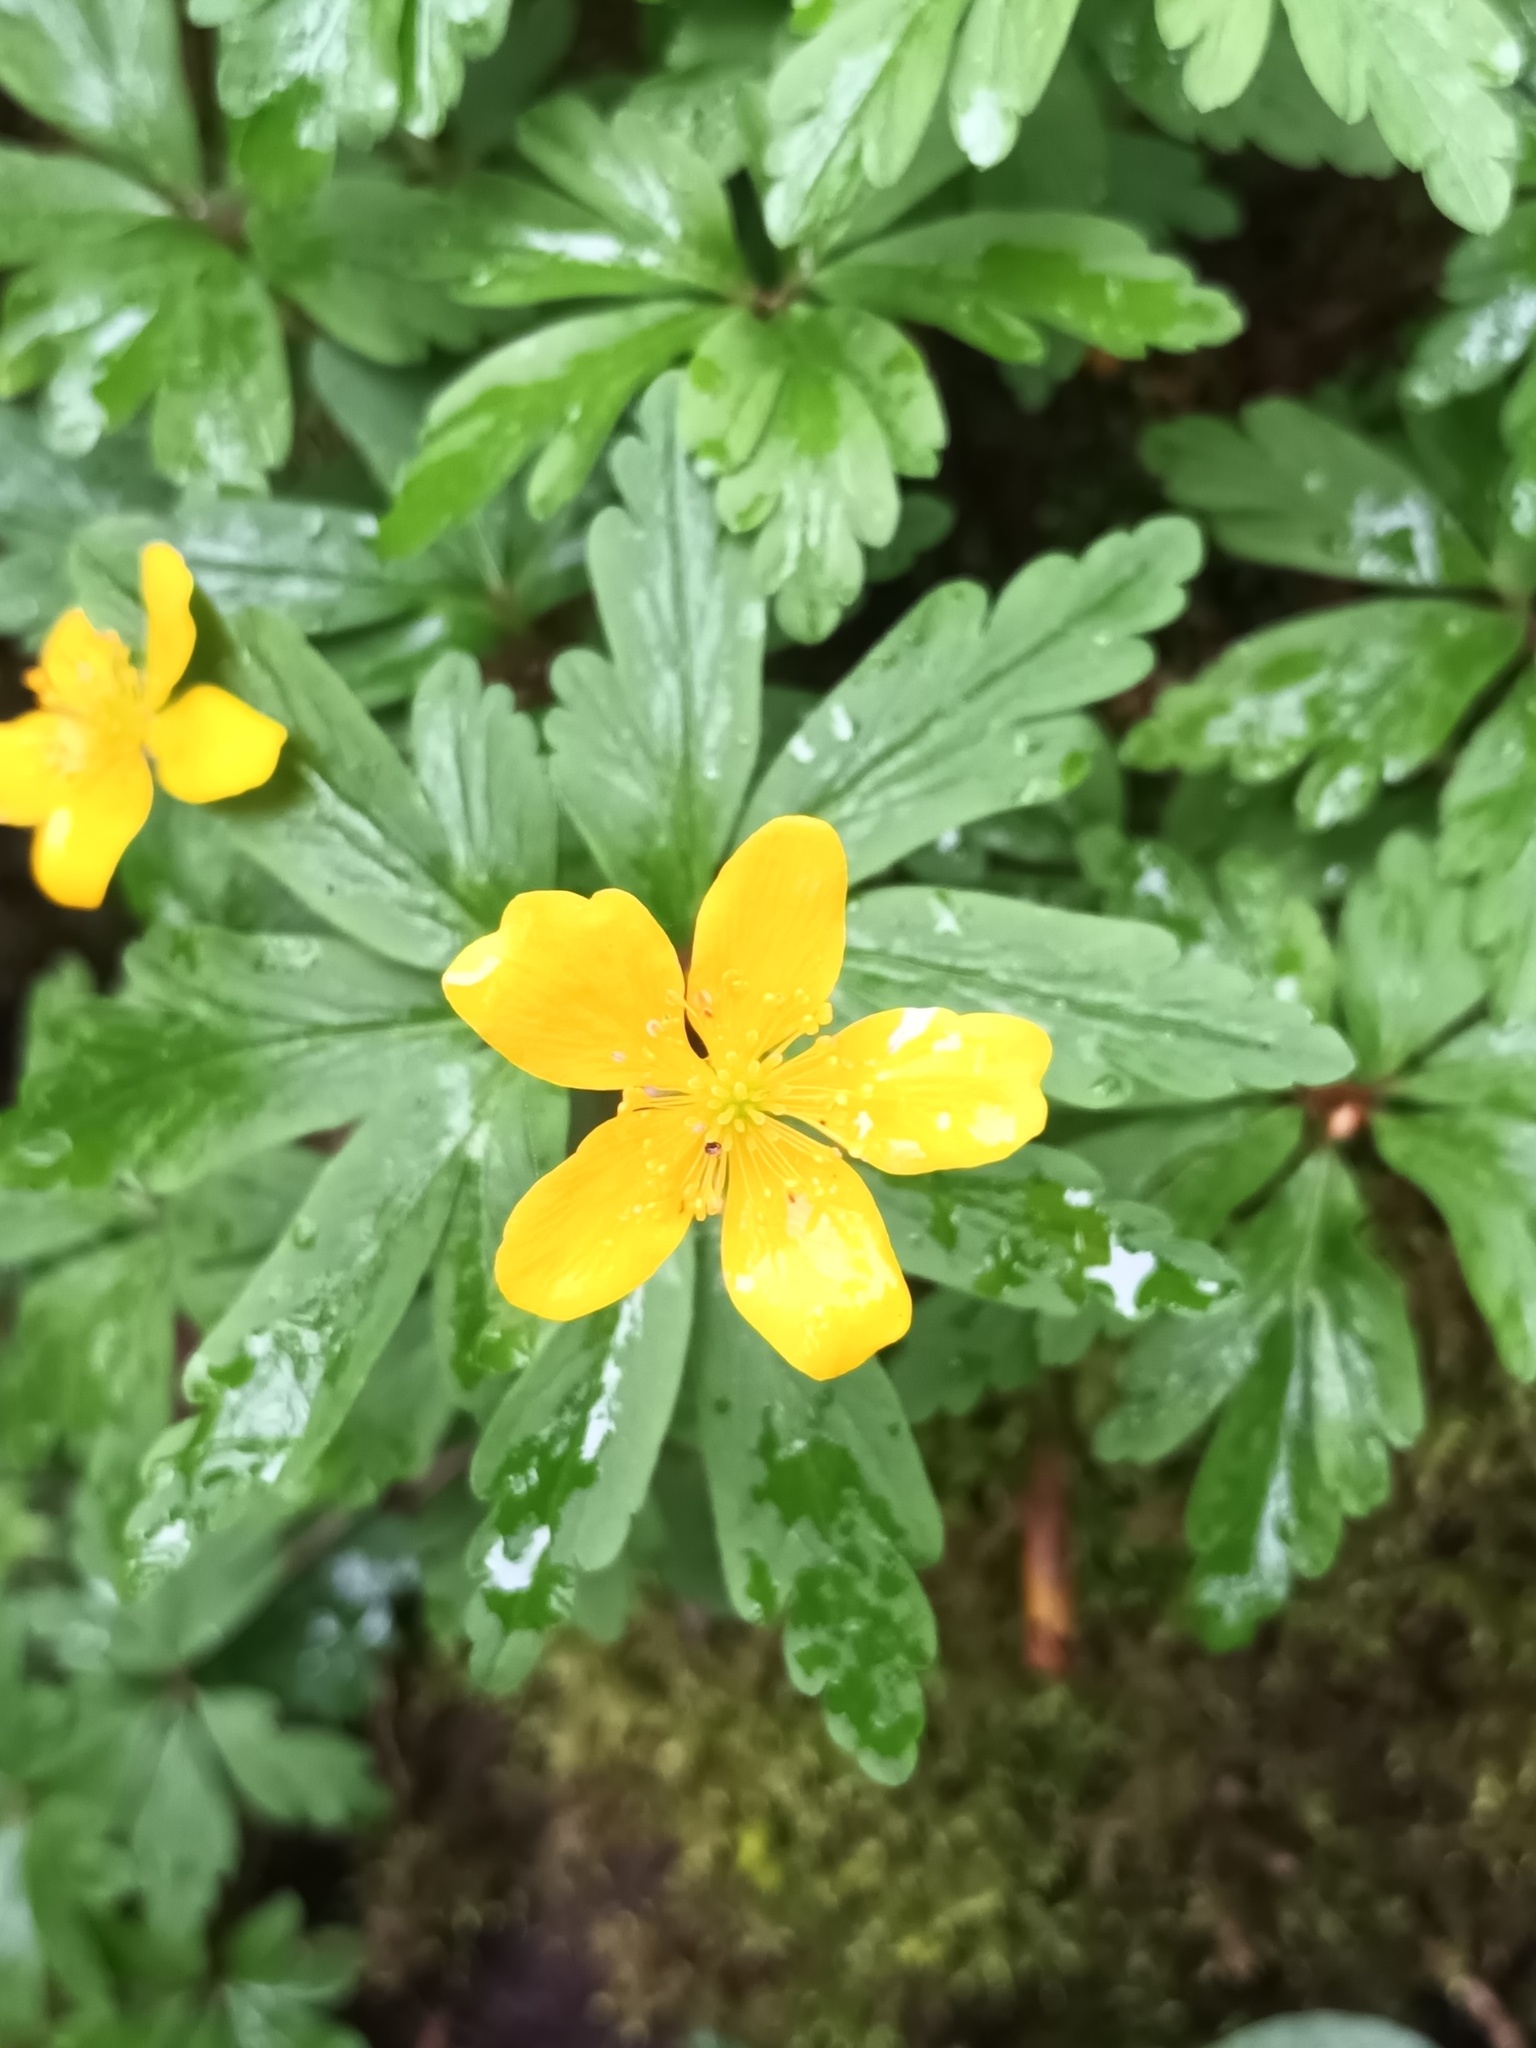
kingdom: Plantae
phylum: Tracheophyta
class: Magnoliopsida
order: Ranunculales
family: Ranunculaceae
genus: Anemone
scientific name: Anemone ranunculoides
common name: Yellow anemone
